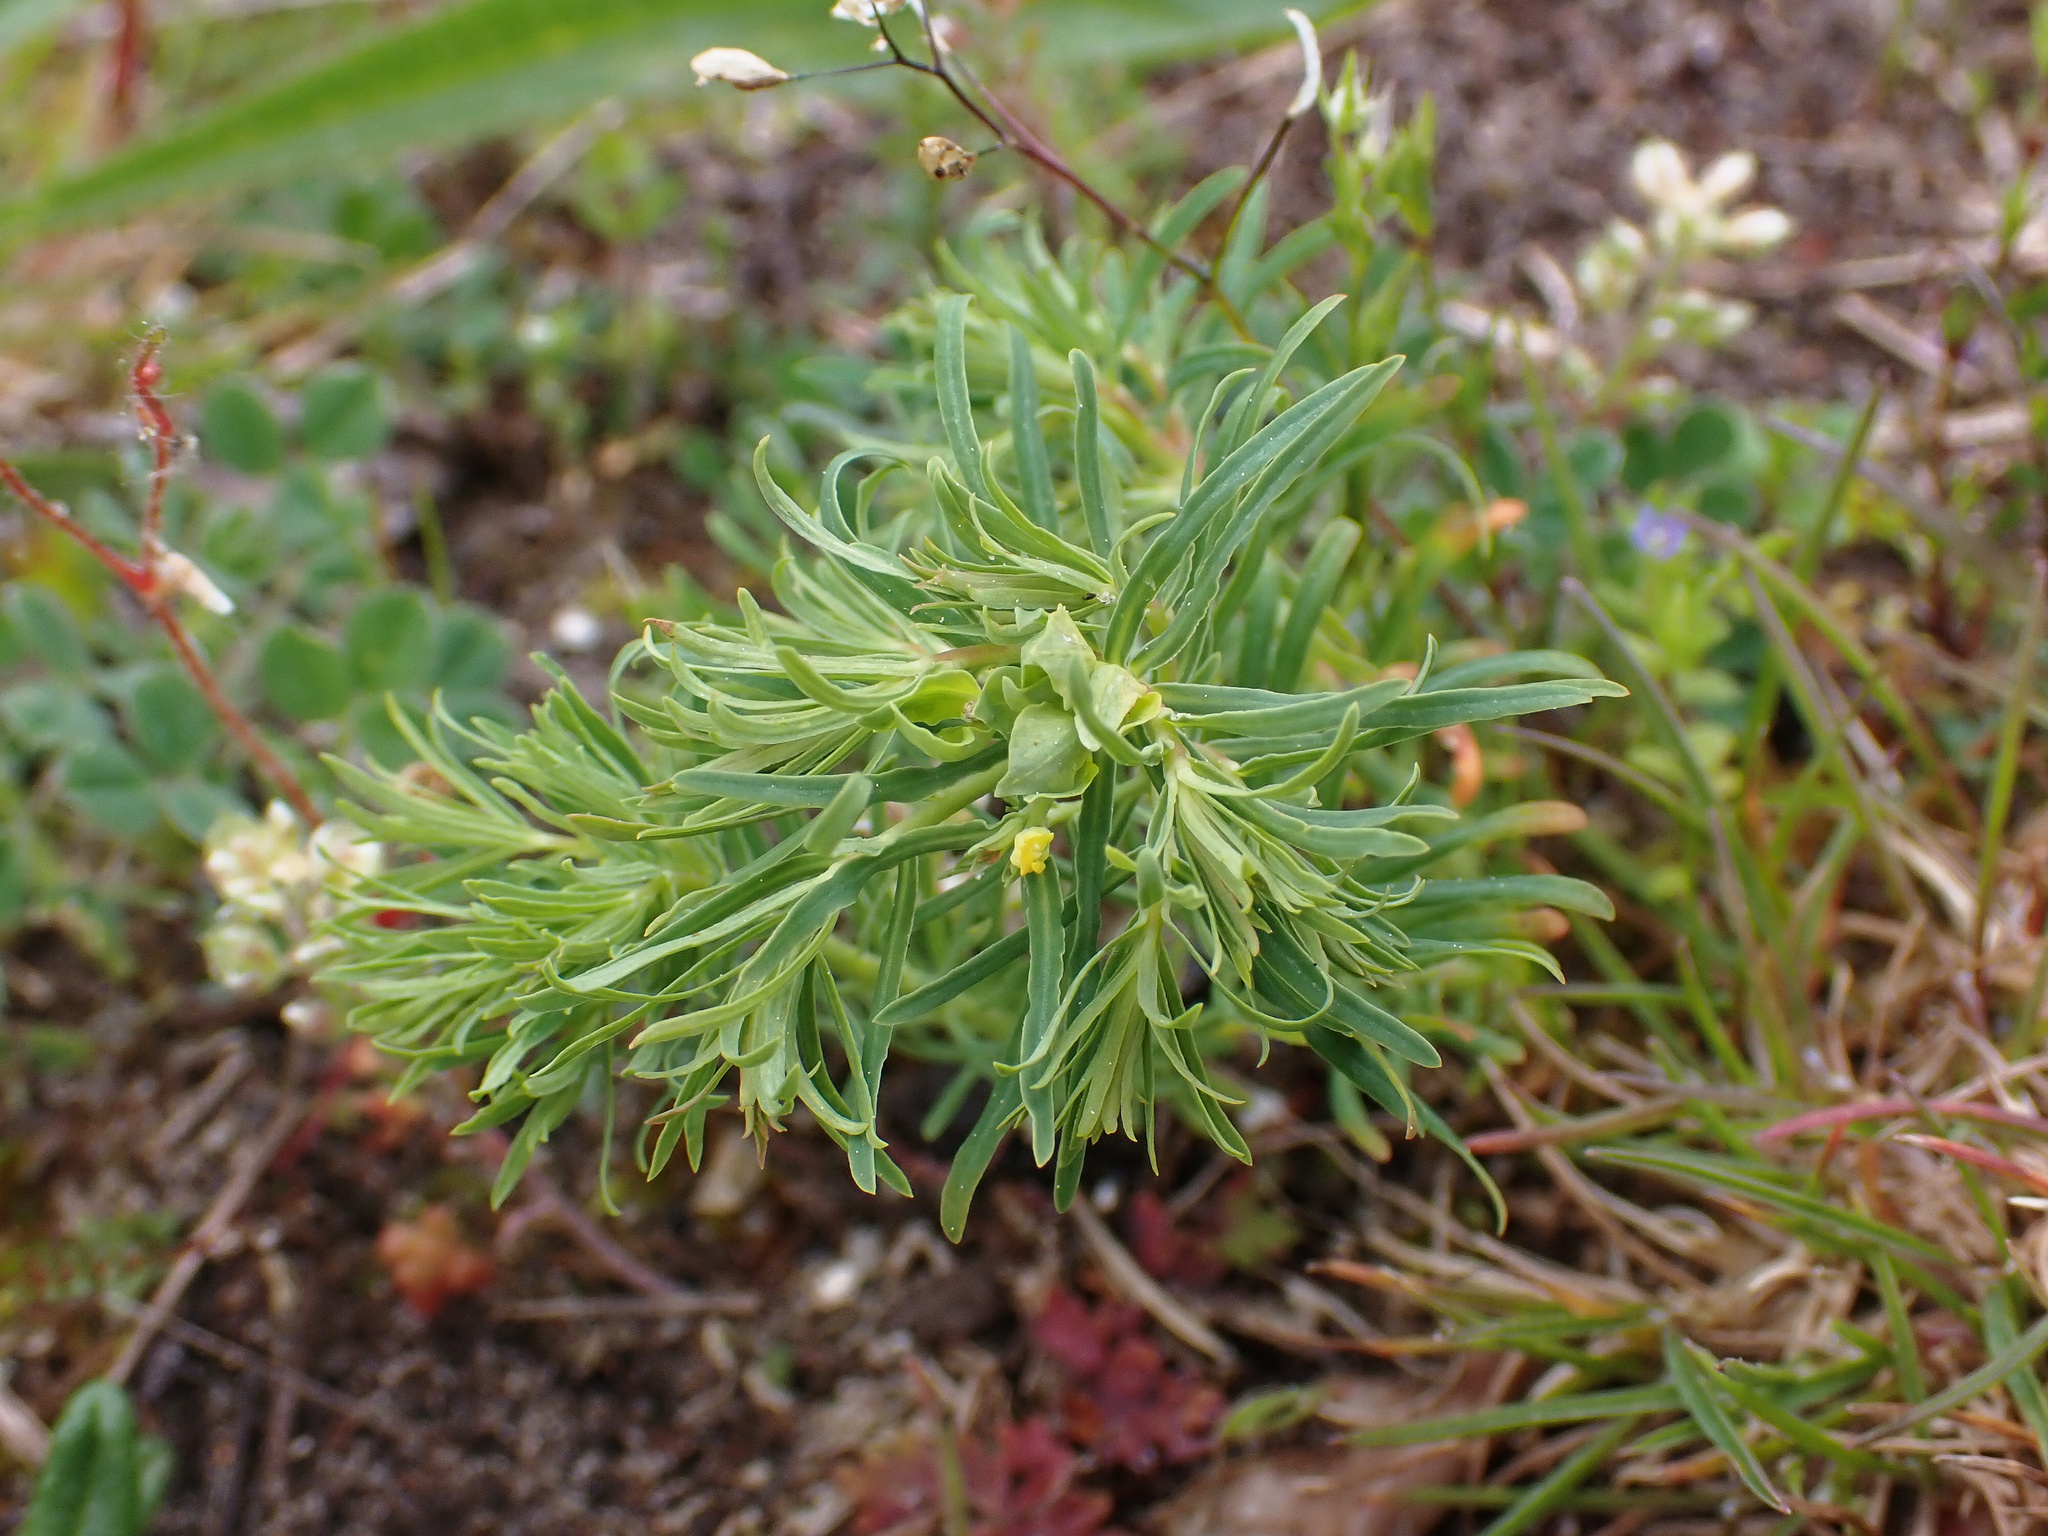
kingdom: Plantae
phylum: Tracheophyta
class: Magnoliopsida
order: Malpighiales
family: Euphorbiaceae
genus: Euphorbia
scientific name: Euphorbia cyparissias
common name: Cypress spurge
